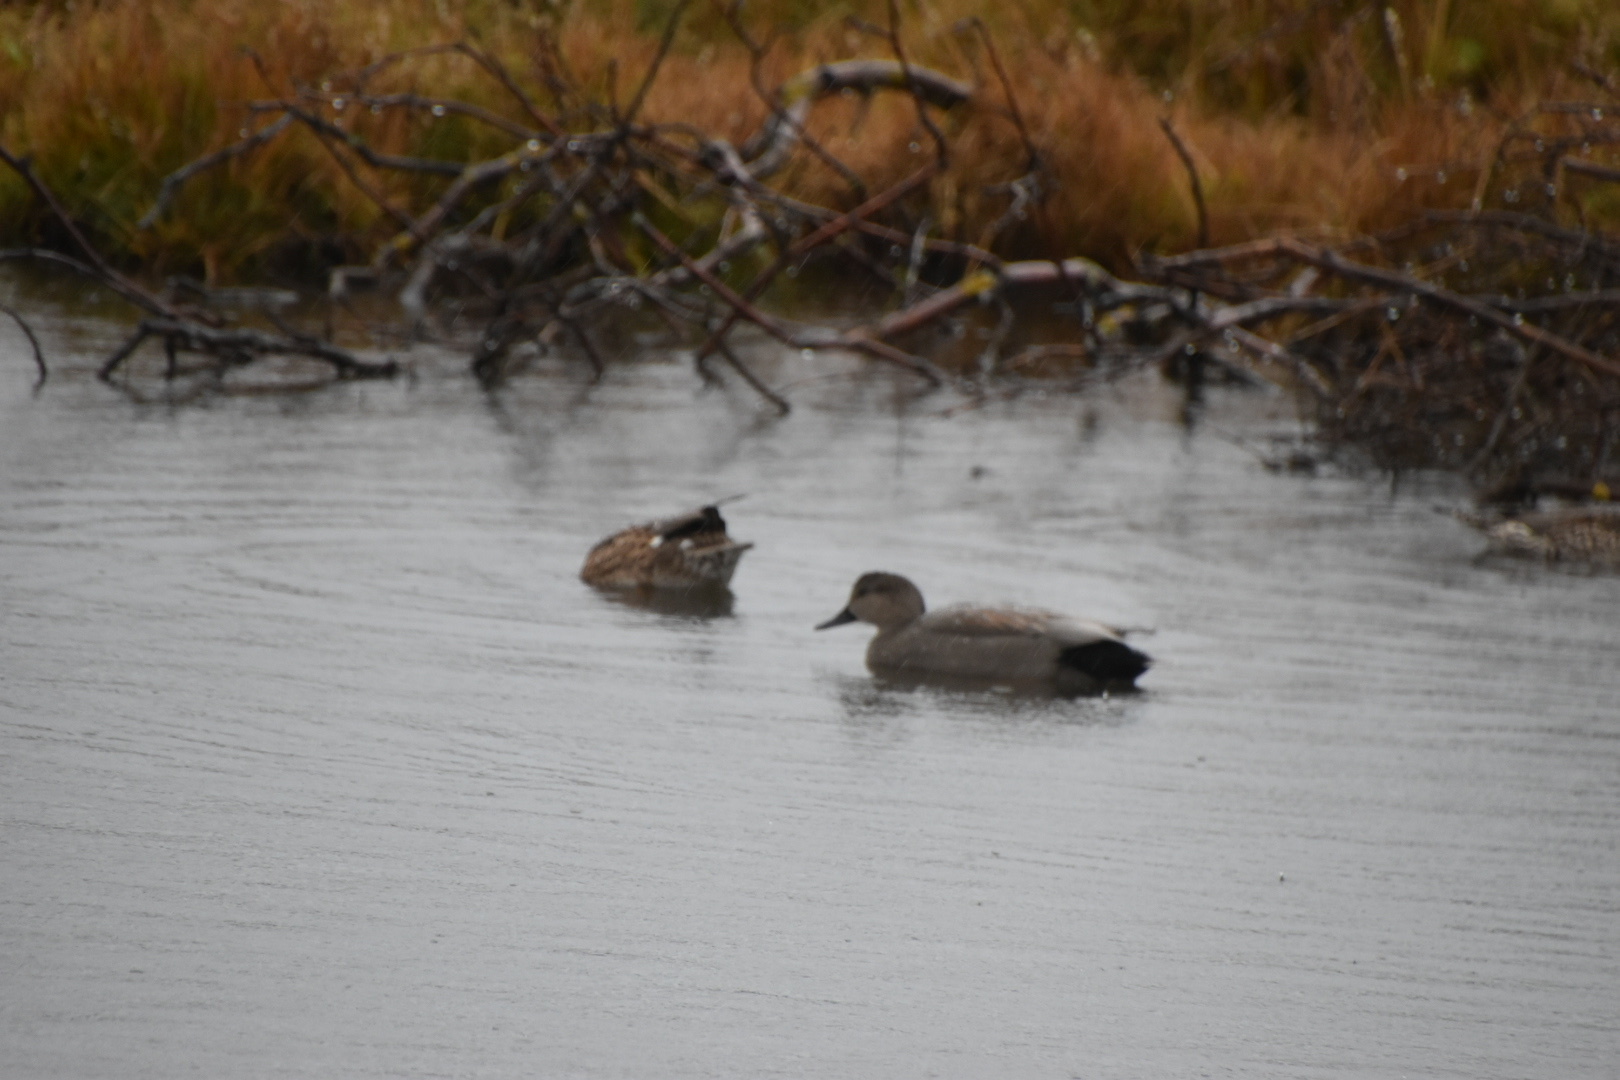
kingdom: Animalia
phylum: Chordata
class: Aves
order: Anseriformes
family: Anatidae
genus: Mareca
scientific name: Mareca strepera
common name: Gadwall
